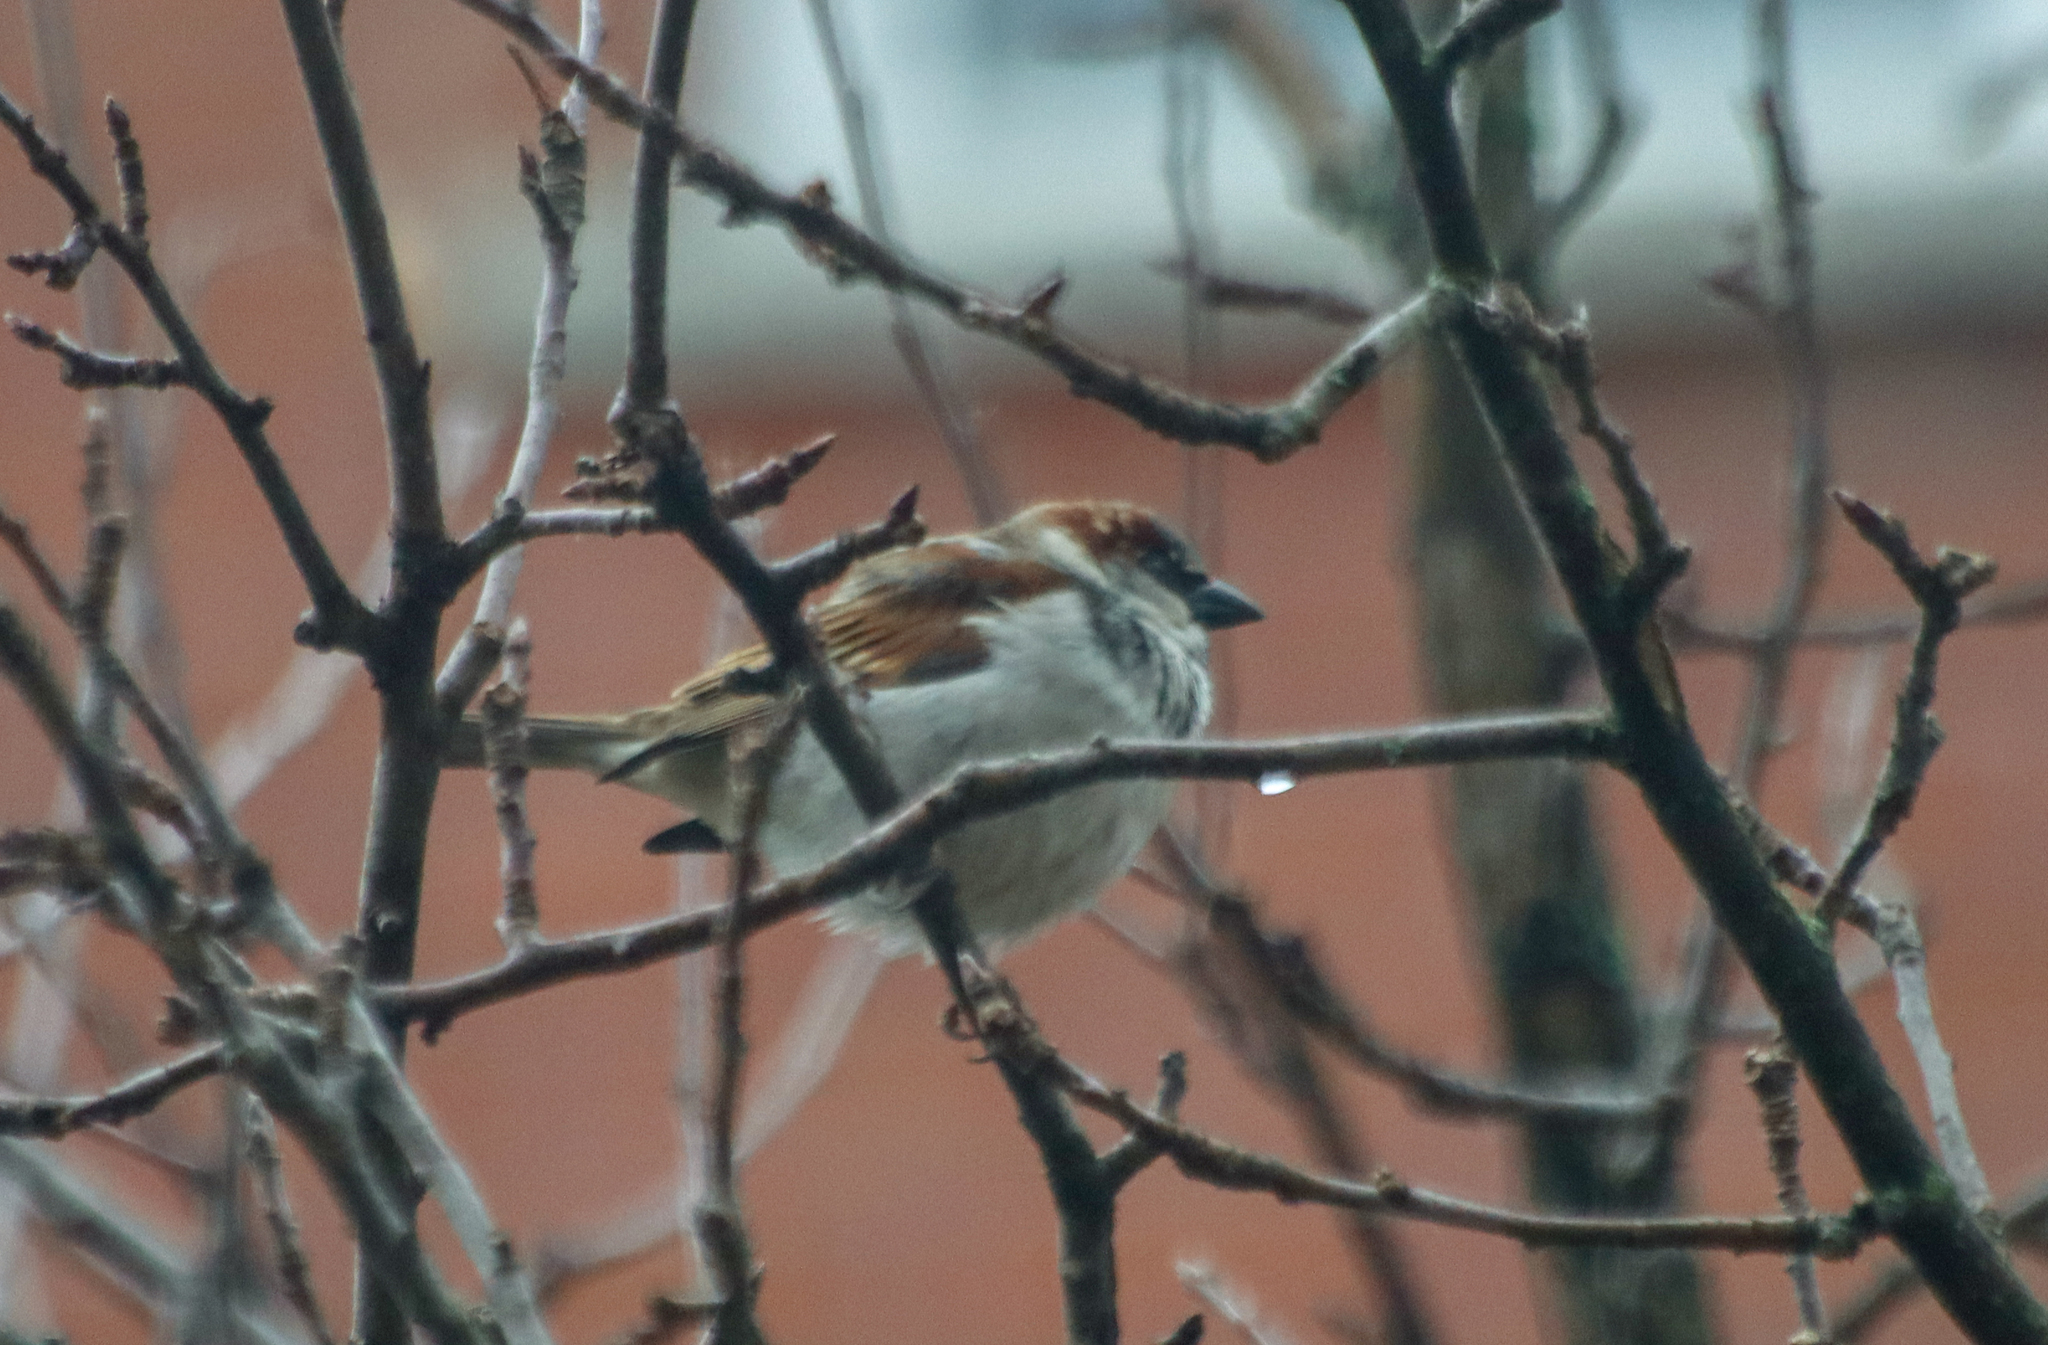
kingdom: Animalia
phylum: Chordata
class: Aves
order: Passeriformes
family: Passeridae
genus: Passer
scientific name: Passer domesticus
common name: House sparrow
